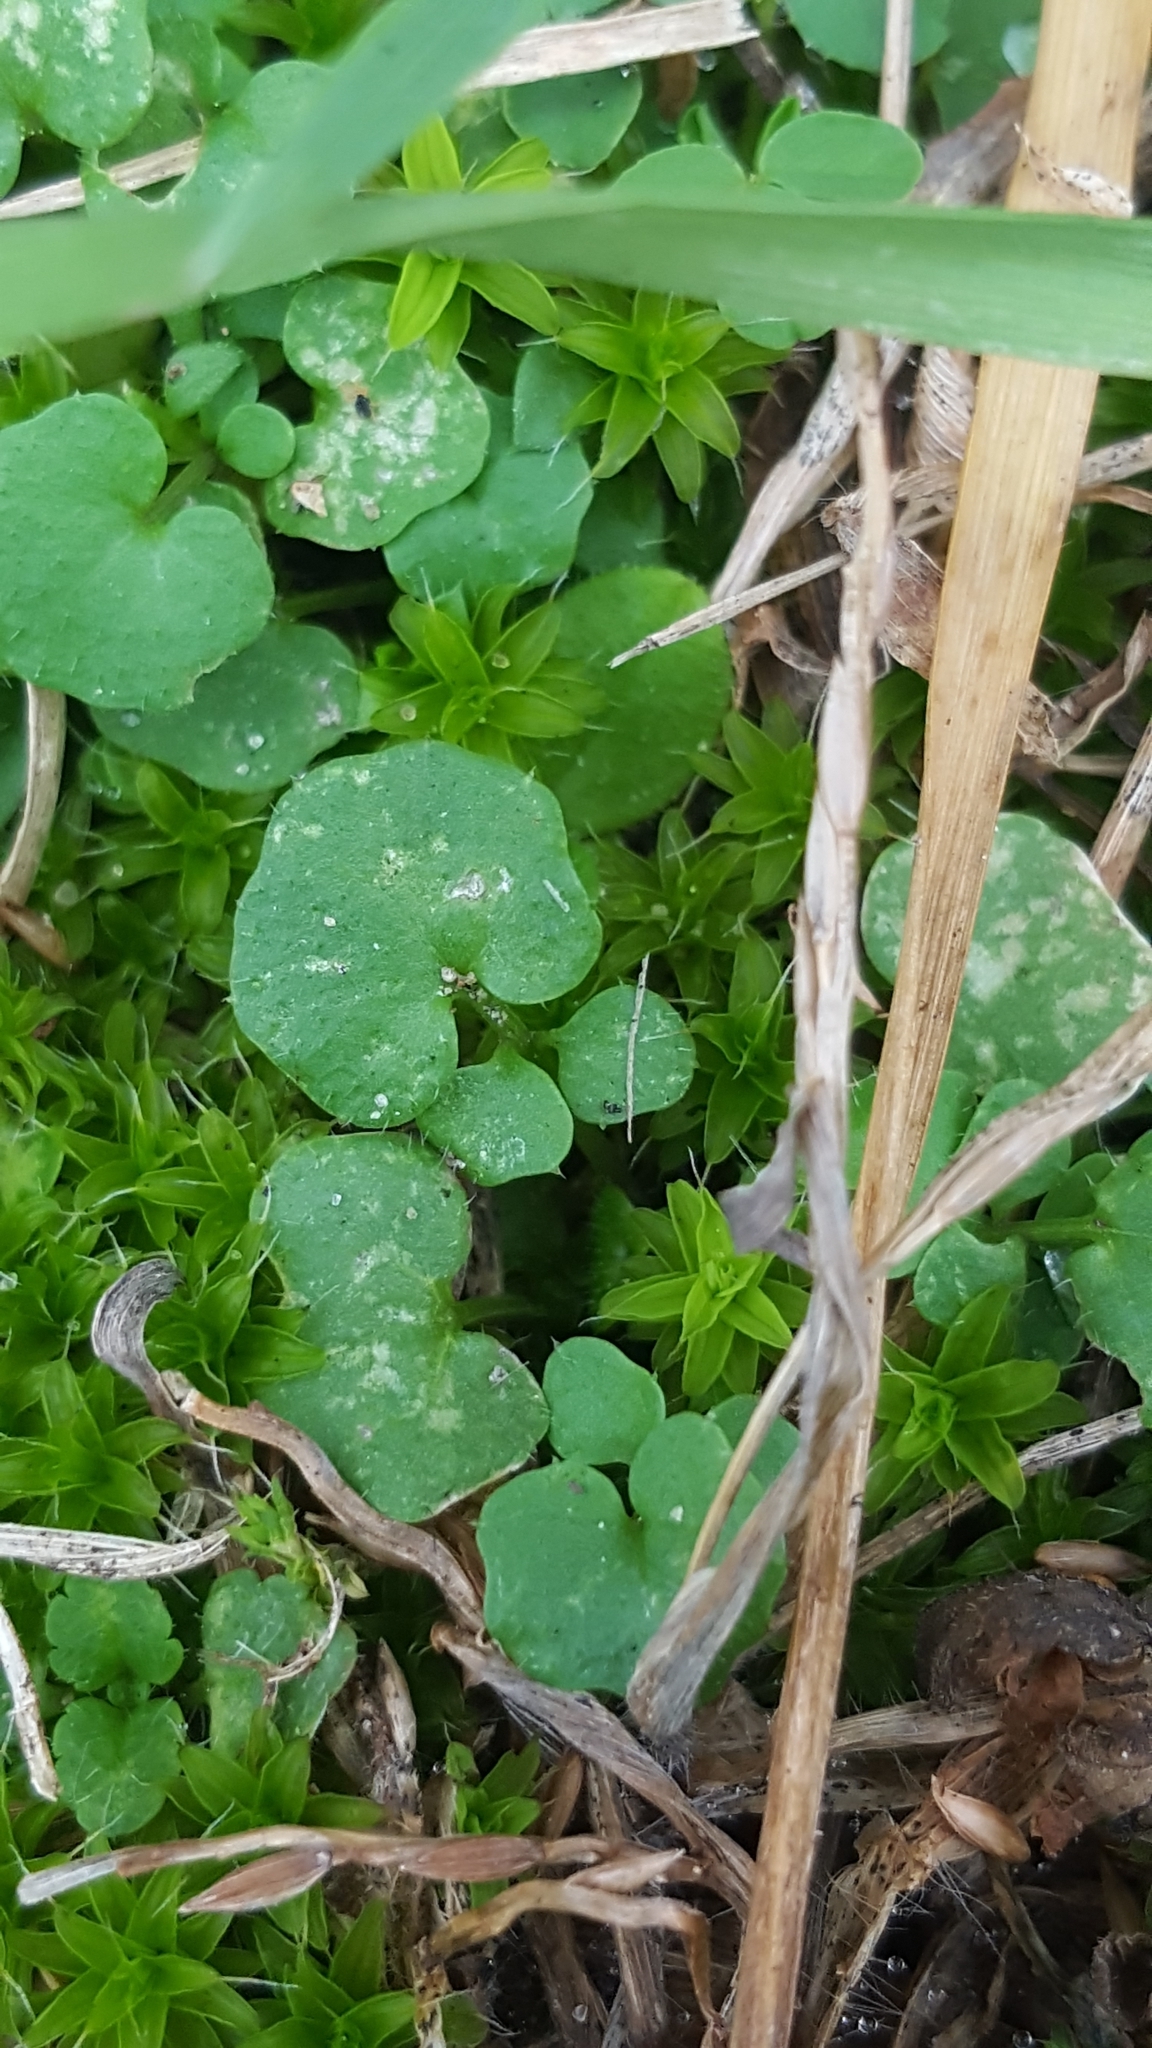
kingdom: Plantae
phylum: Tracheophyta
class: Magnoliopsida
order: Brassicales
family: Brassicaceae
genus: Cardamine
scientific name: Cardamine hirsuta
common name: Hairy bittercress
